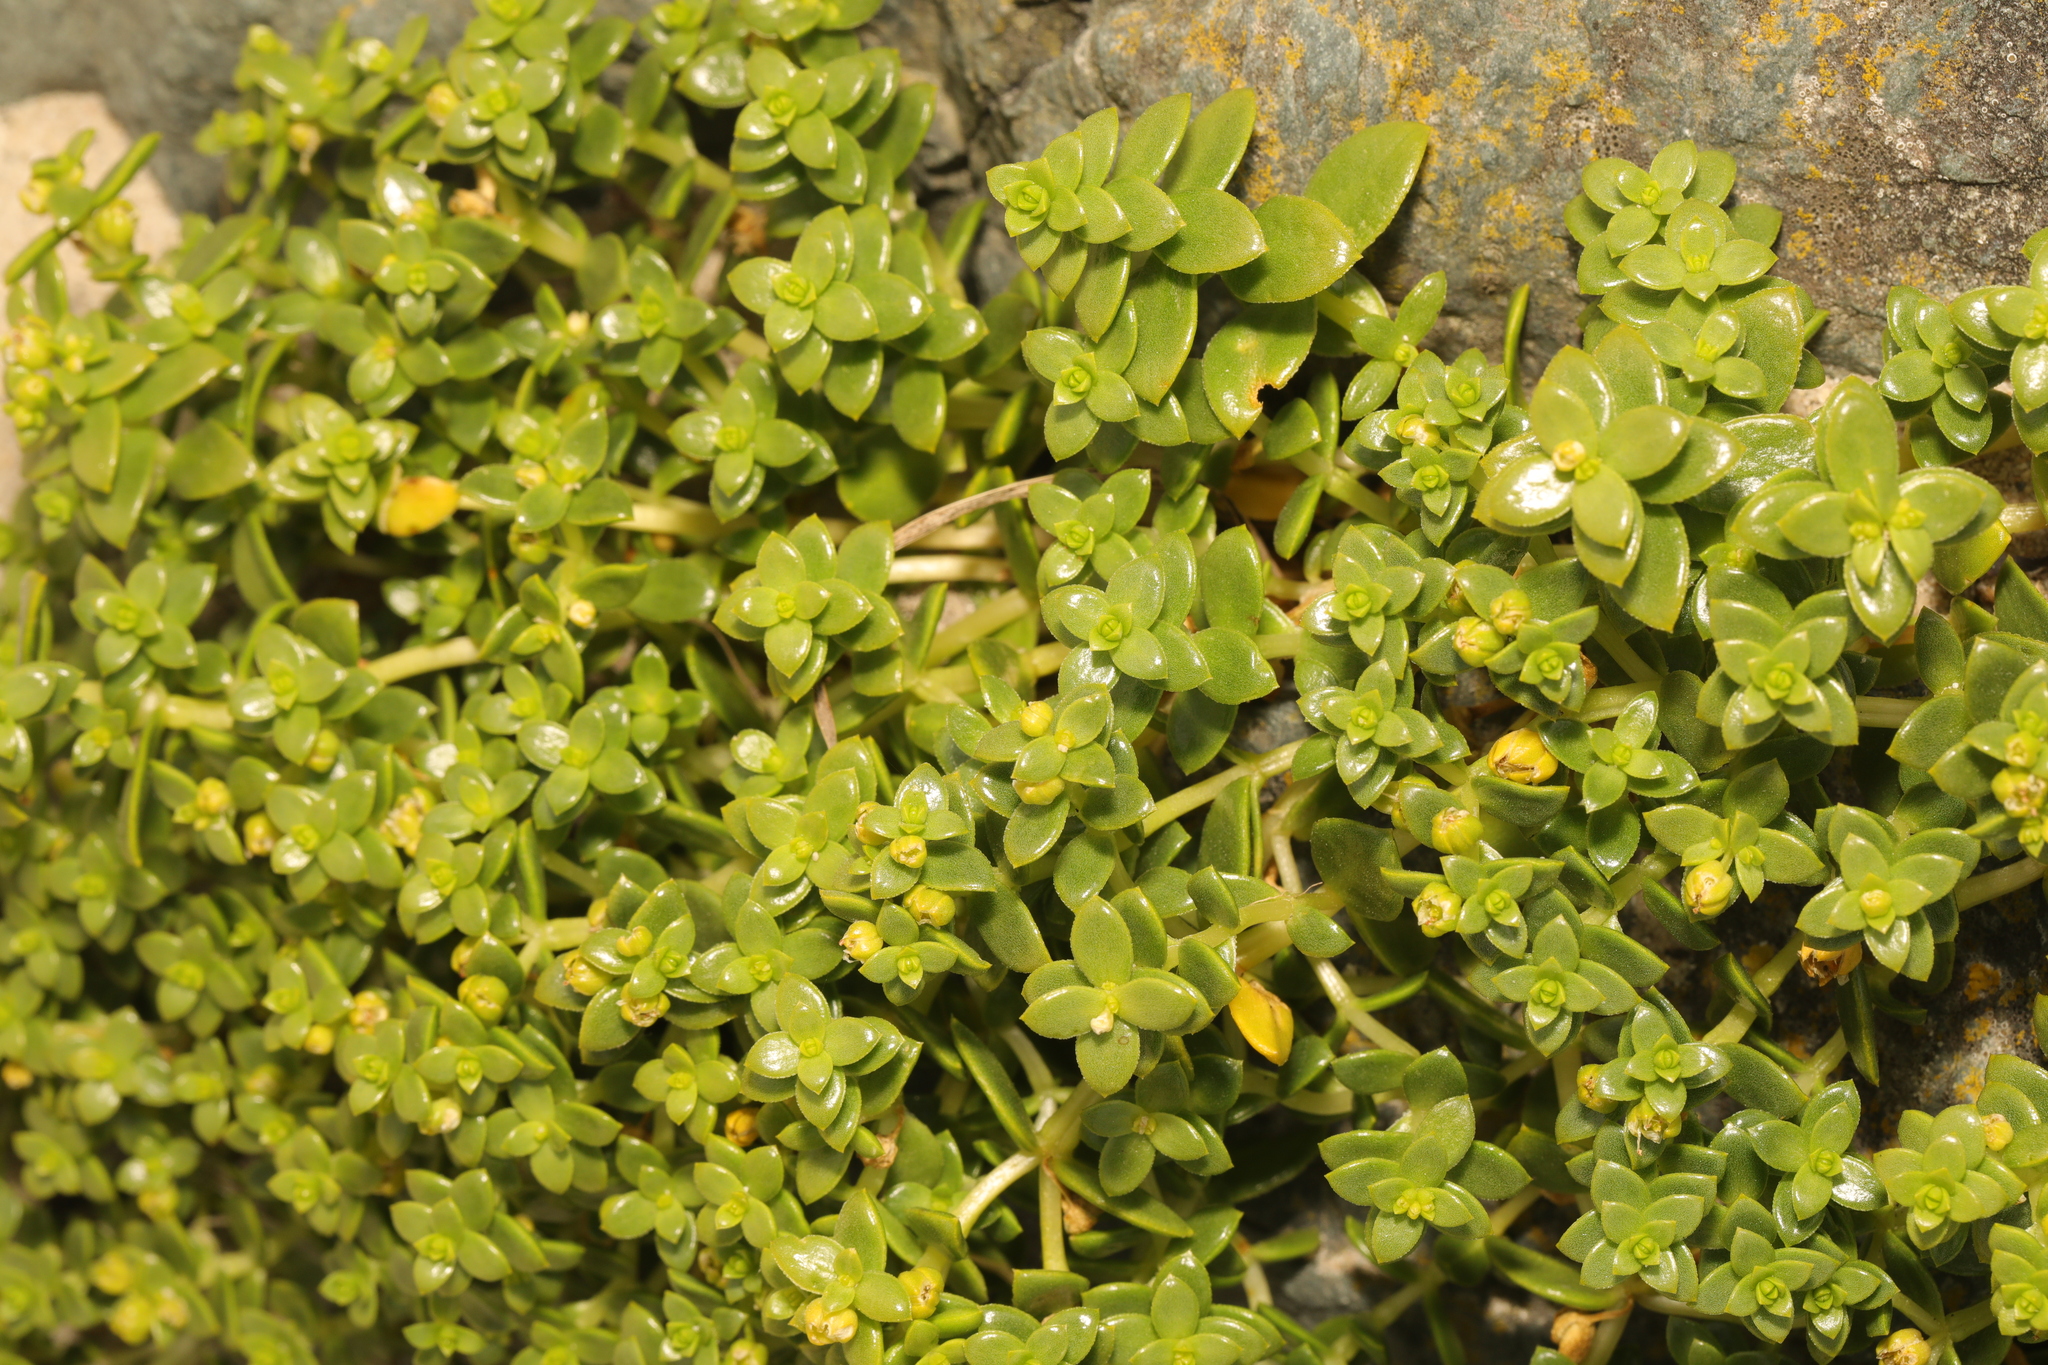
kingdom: Plantae
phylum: Tracheophyta
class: Magnoliopsida
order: Caryophyllales
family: Caryophyllaceae
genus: Honckenya
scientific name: Honckenya peploides
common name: Sea sandwort
